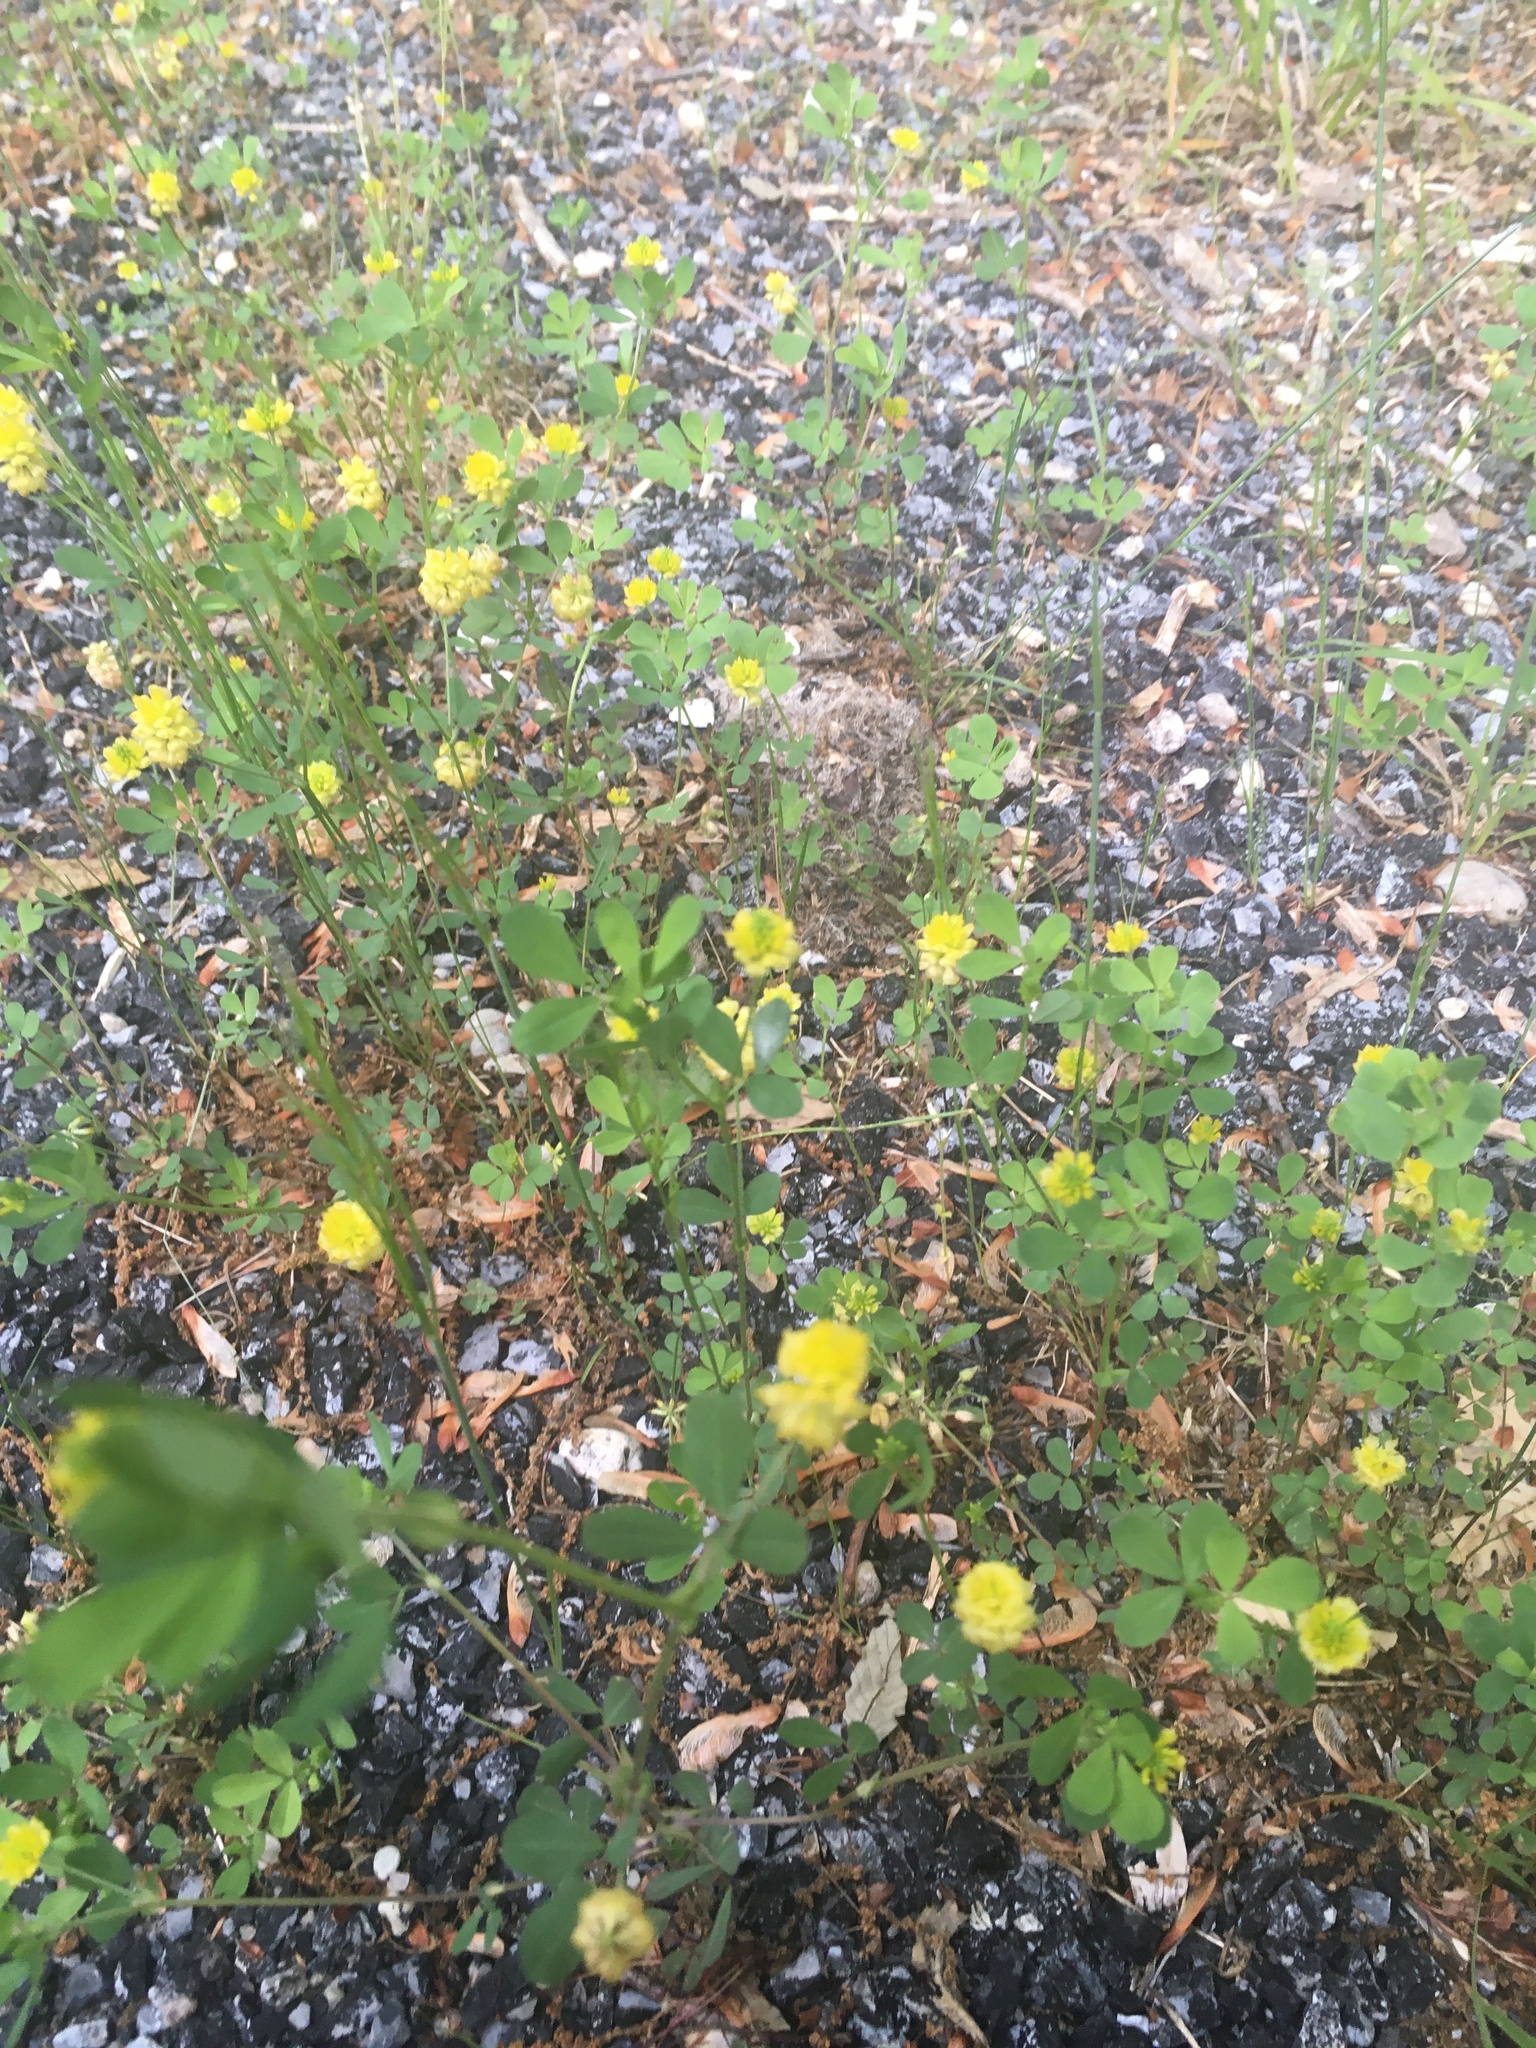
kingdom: Plantae
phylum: Tracheophyta
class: Magnoliopsida
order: Fabales
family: Fabaceae
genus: Trifolium
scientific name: Trifolium campestre
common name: Field clover
